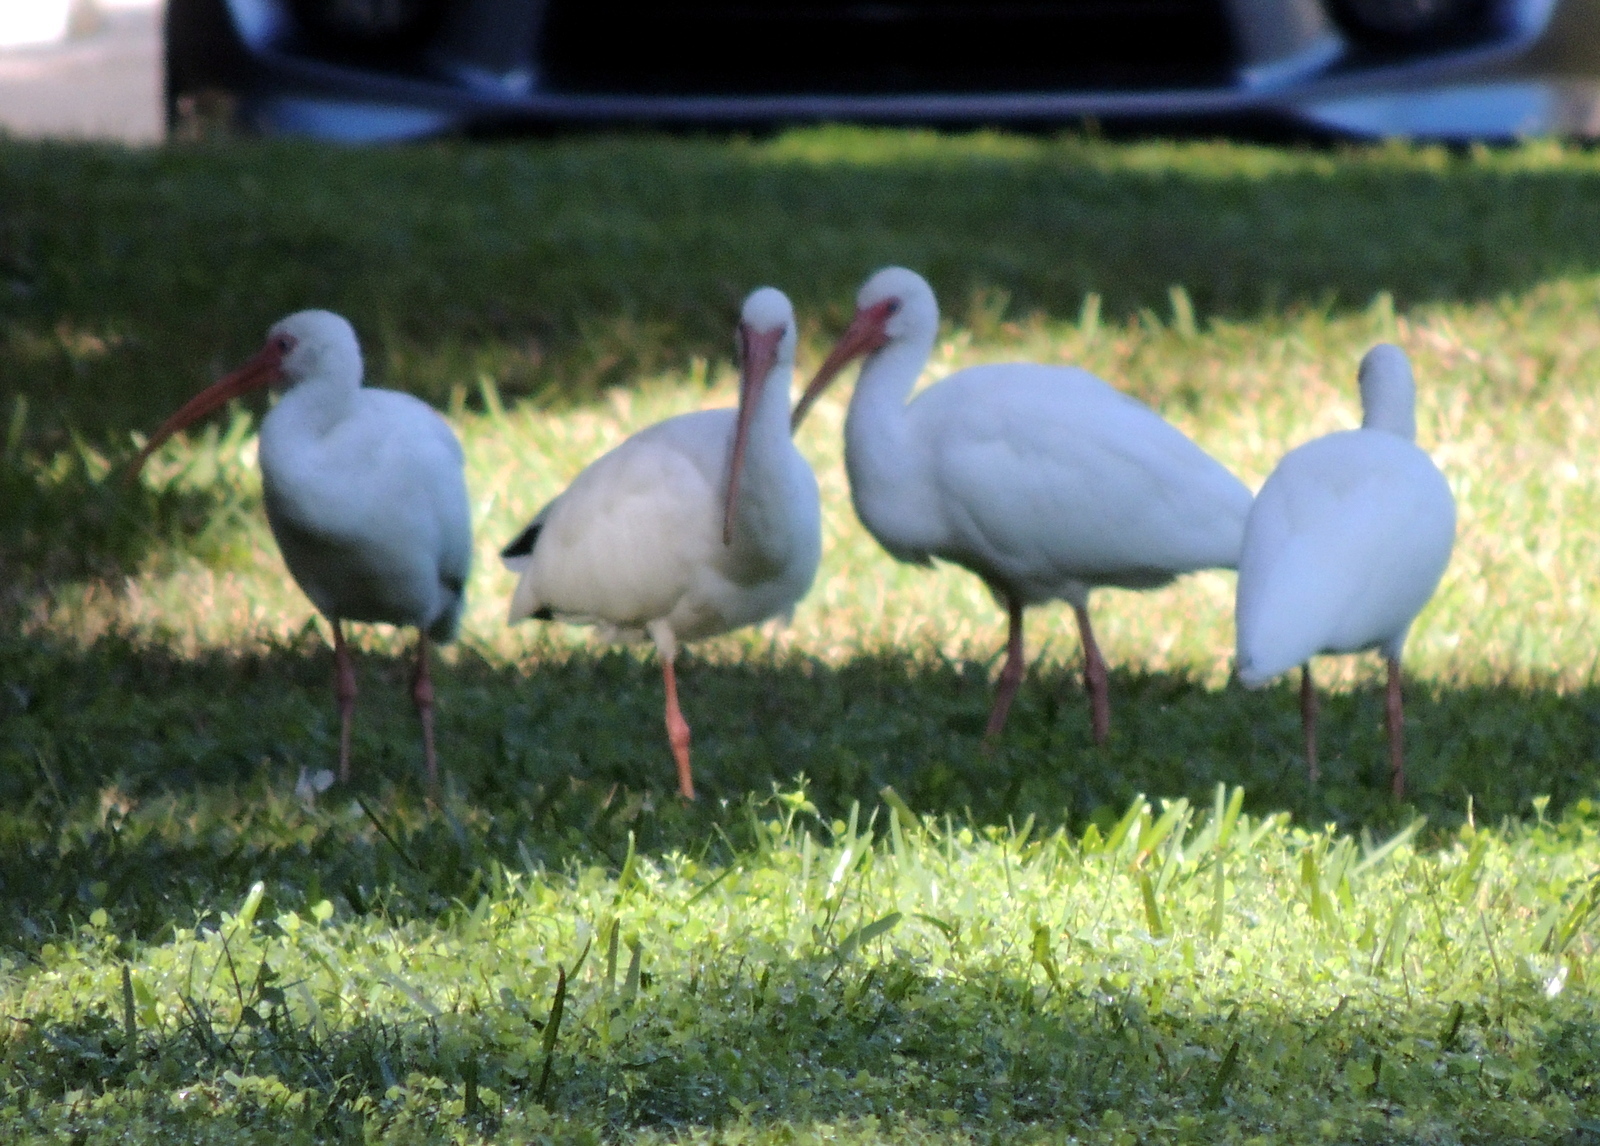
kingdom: Animalia
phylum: Chordata
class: Aves
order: Pelecaniformes
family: Threskiornithidae
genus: Eudocimus
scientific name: Eudocimus albus
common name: White ibis
